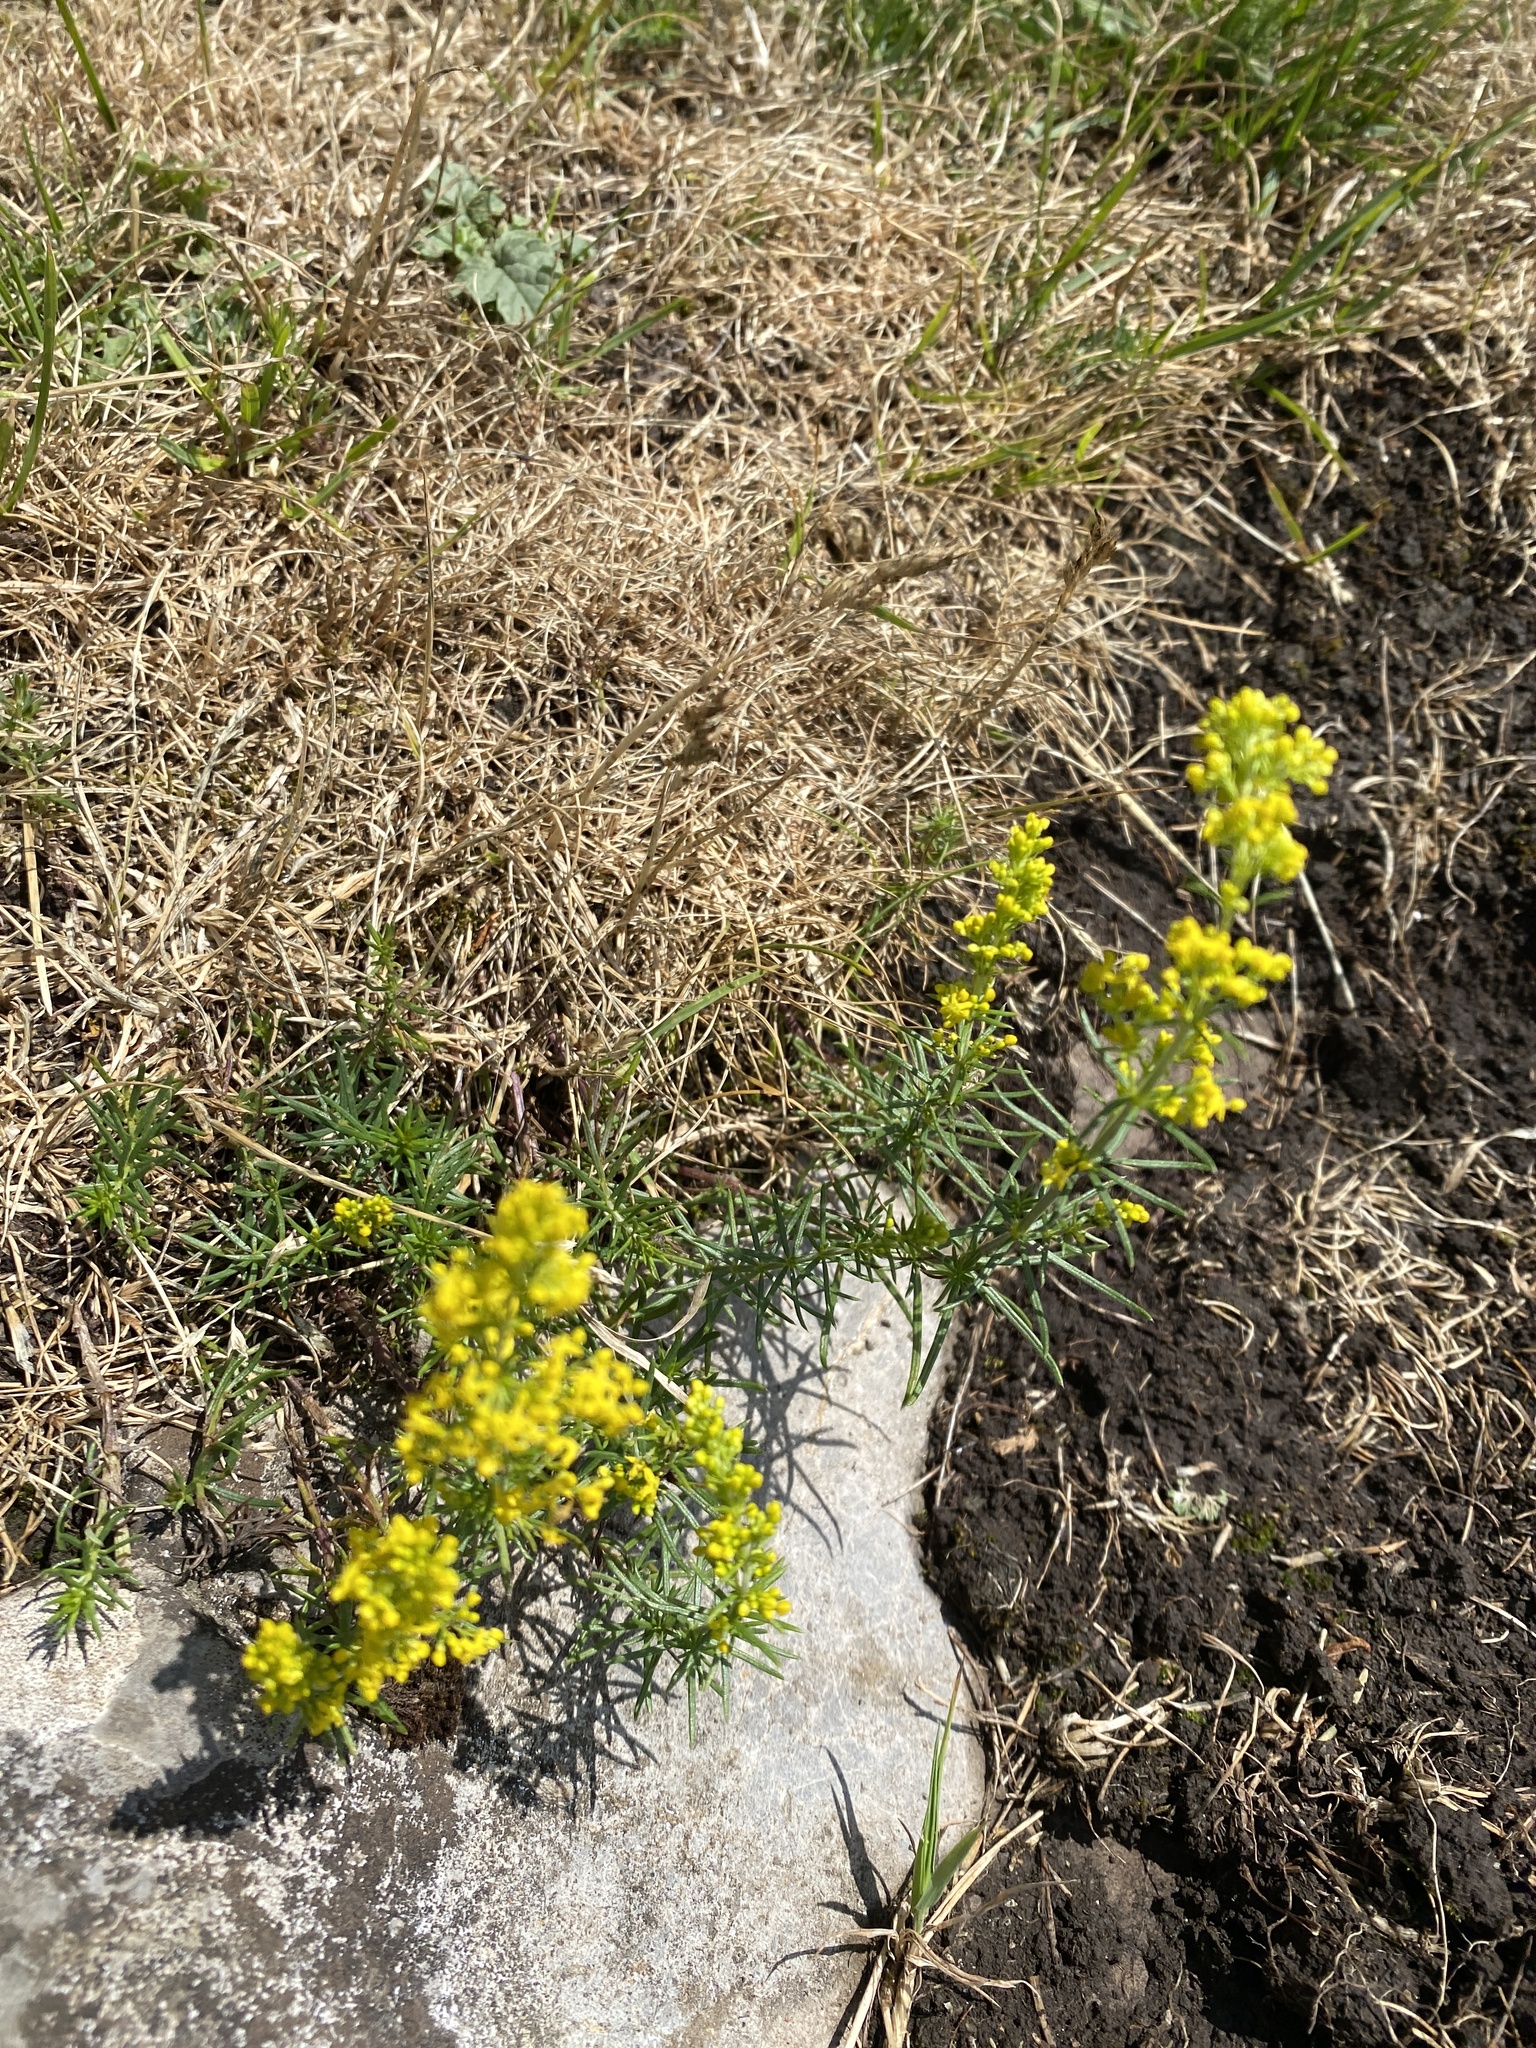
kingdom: Plantae
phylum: Tracheophyta
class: Magnoliopsida
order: Gentianales
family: Rubiaceae
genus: Galium
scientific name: Galium verum
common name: Lady's bedstraw
